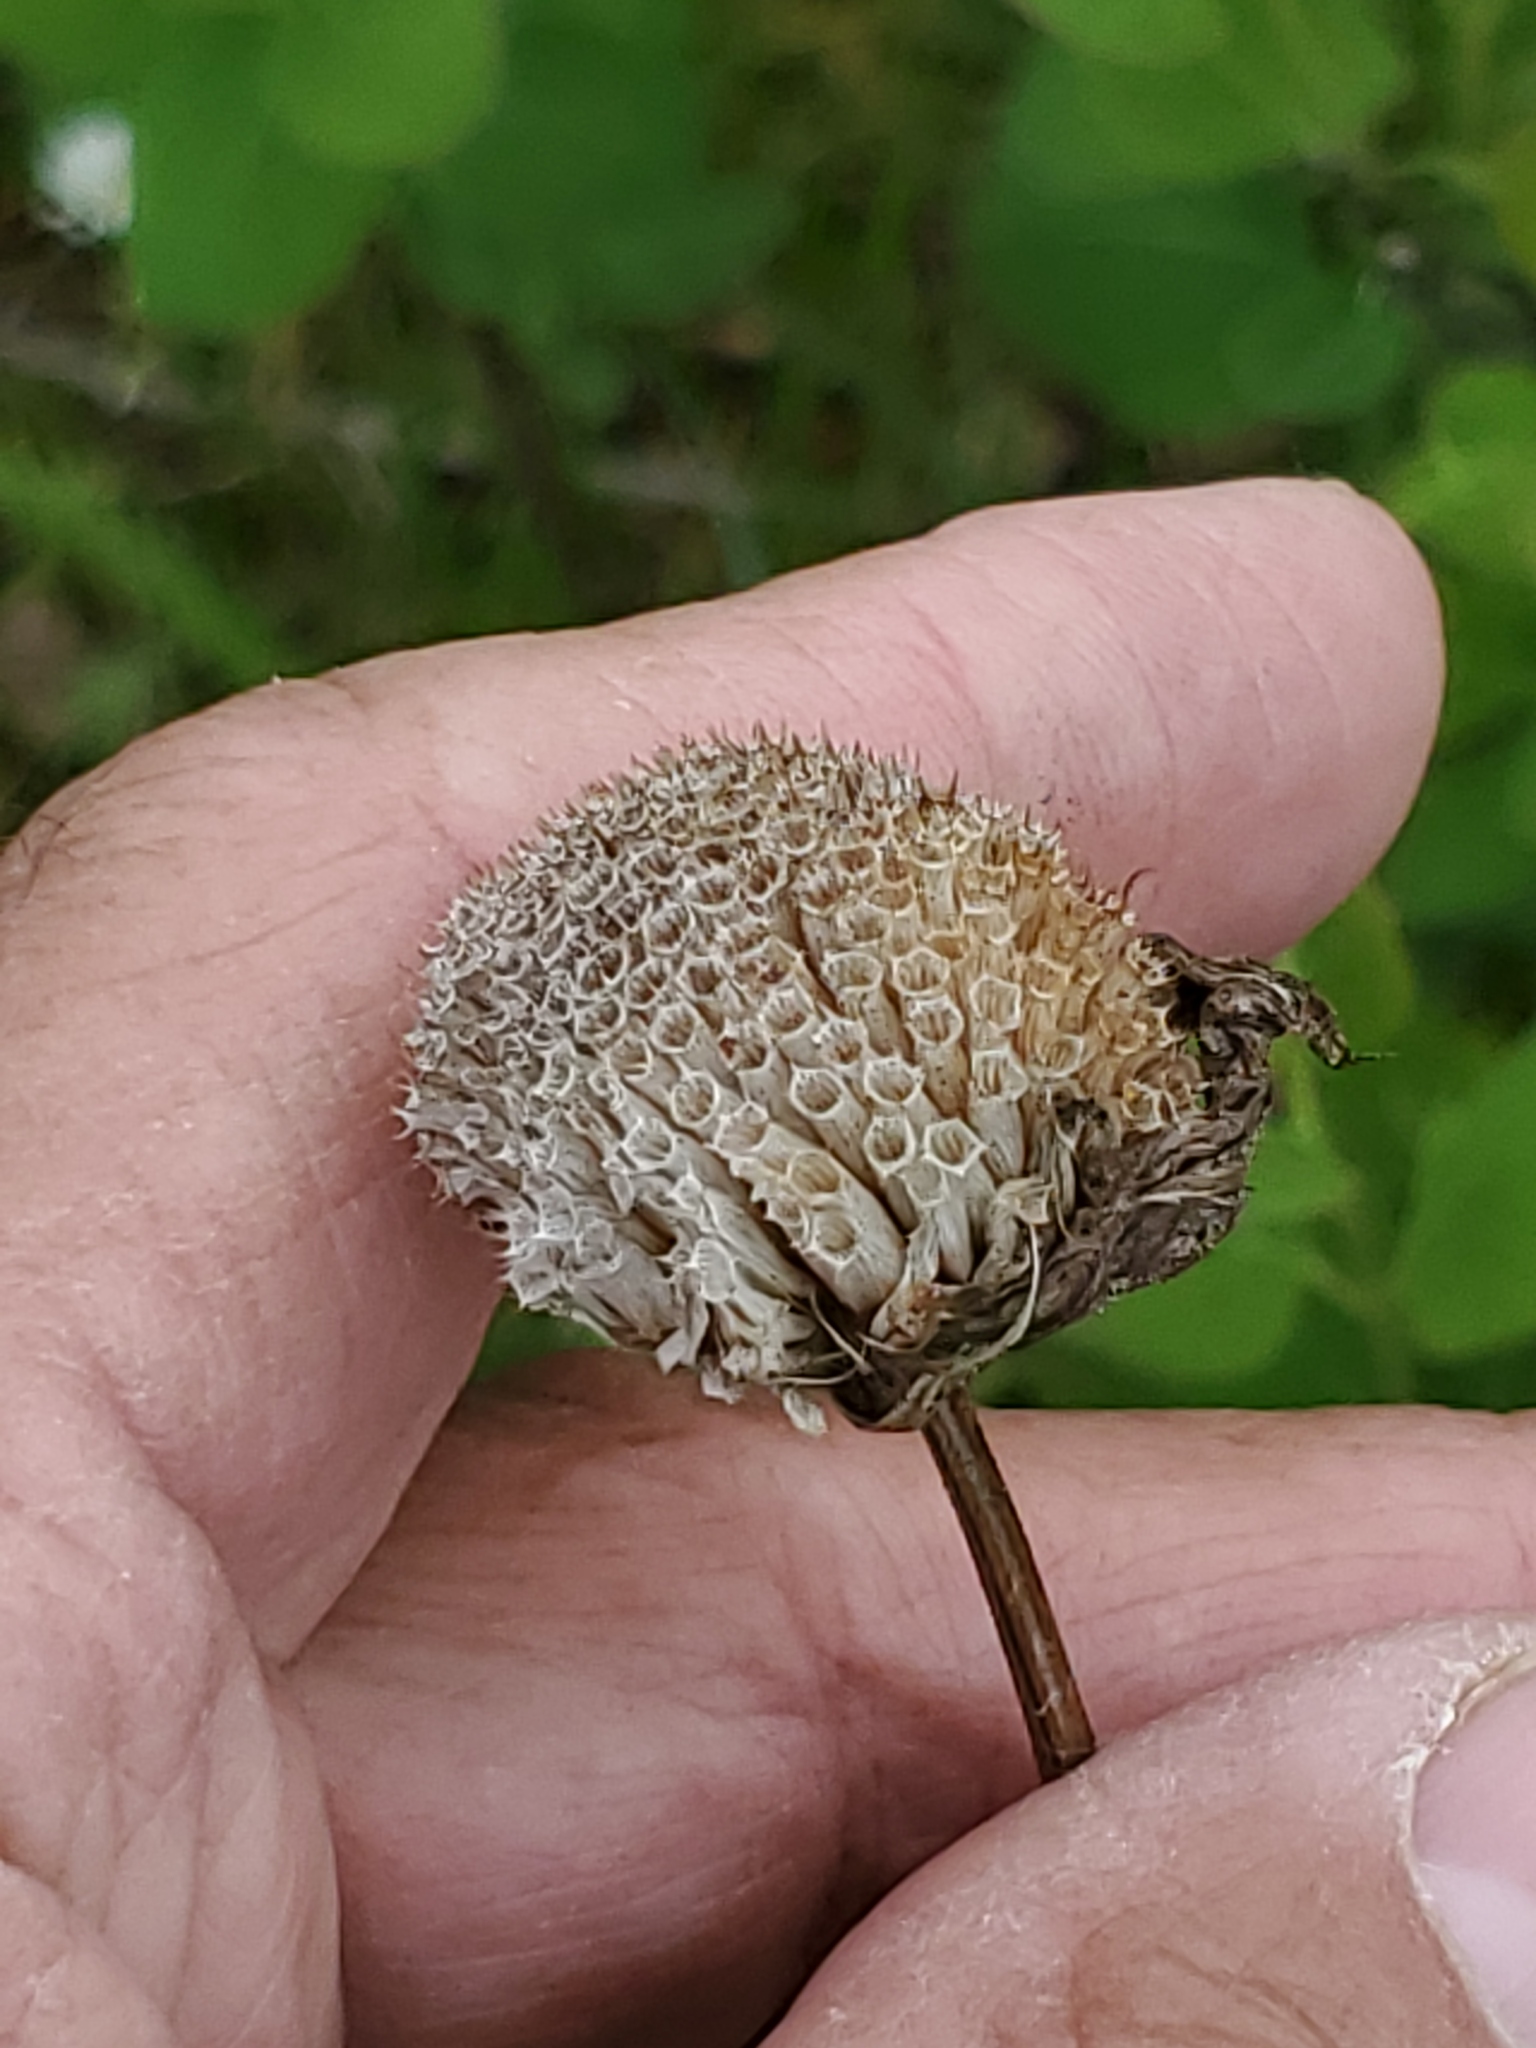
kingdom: Plantae
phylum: Tracheophyta
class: Magnoliopsida
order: Lamiales
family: Lamiaceae
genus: Monarda
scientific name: Monarda fistulosa
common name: Purple beebalm
